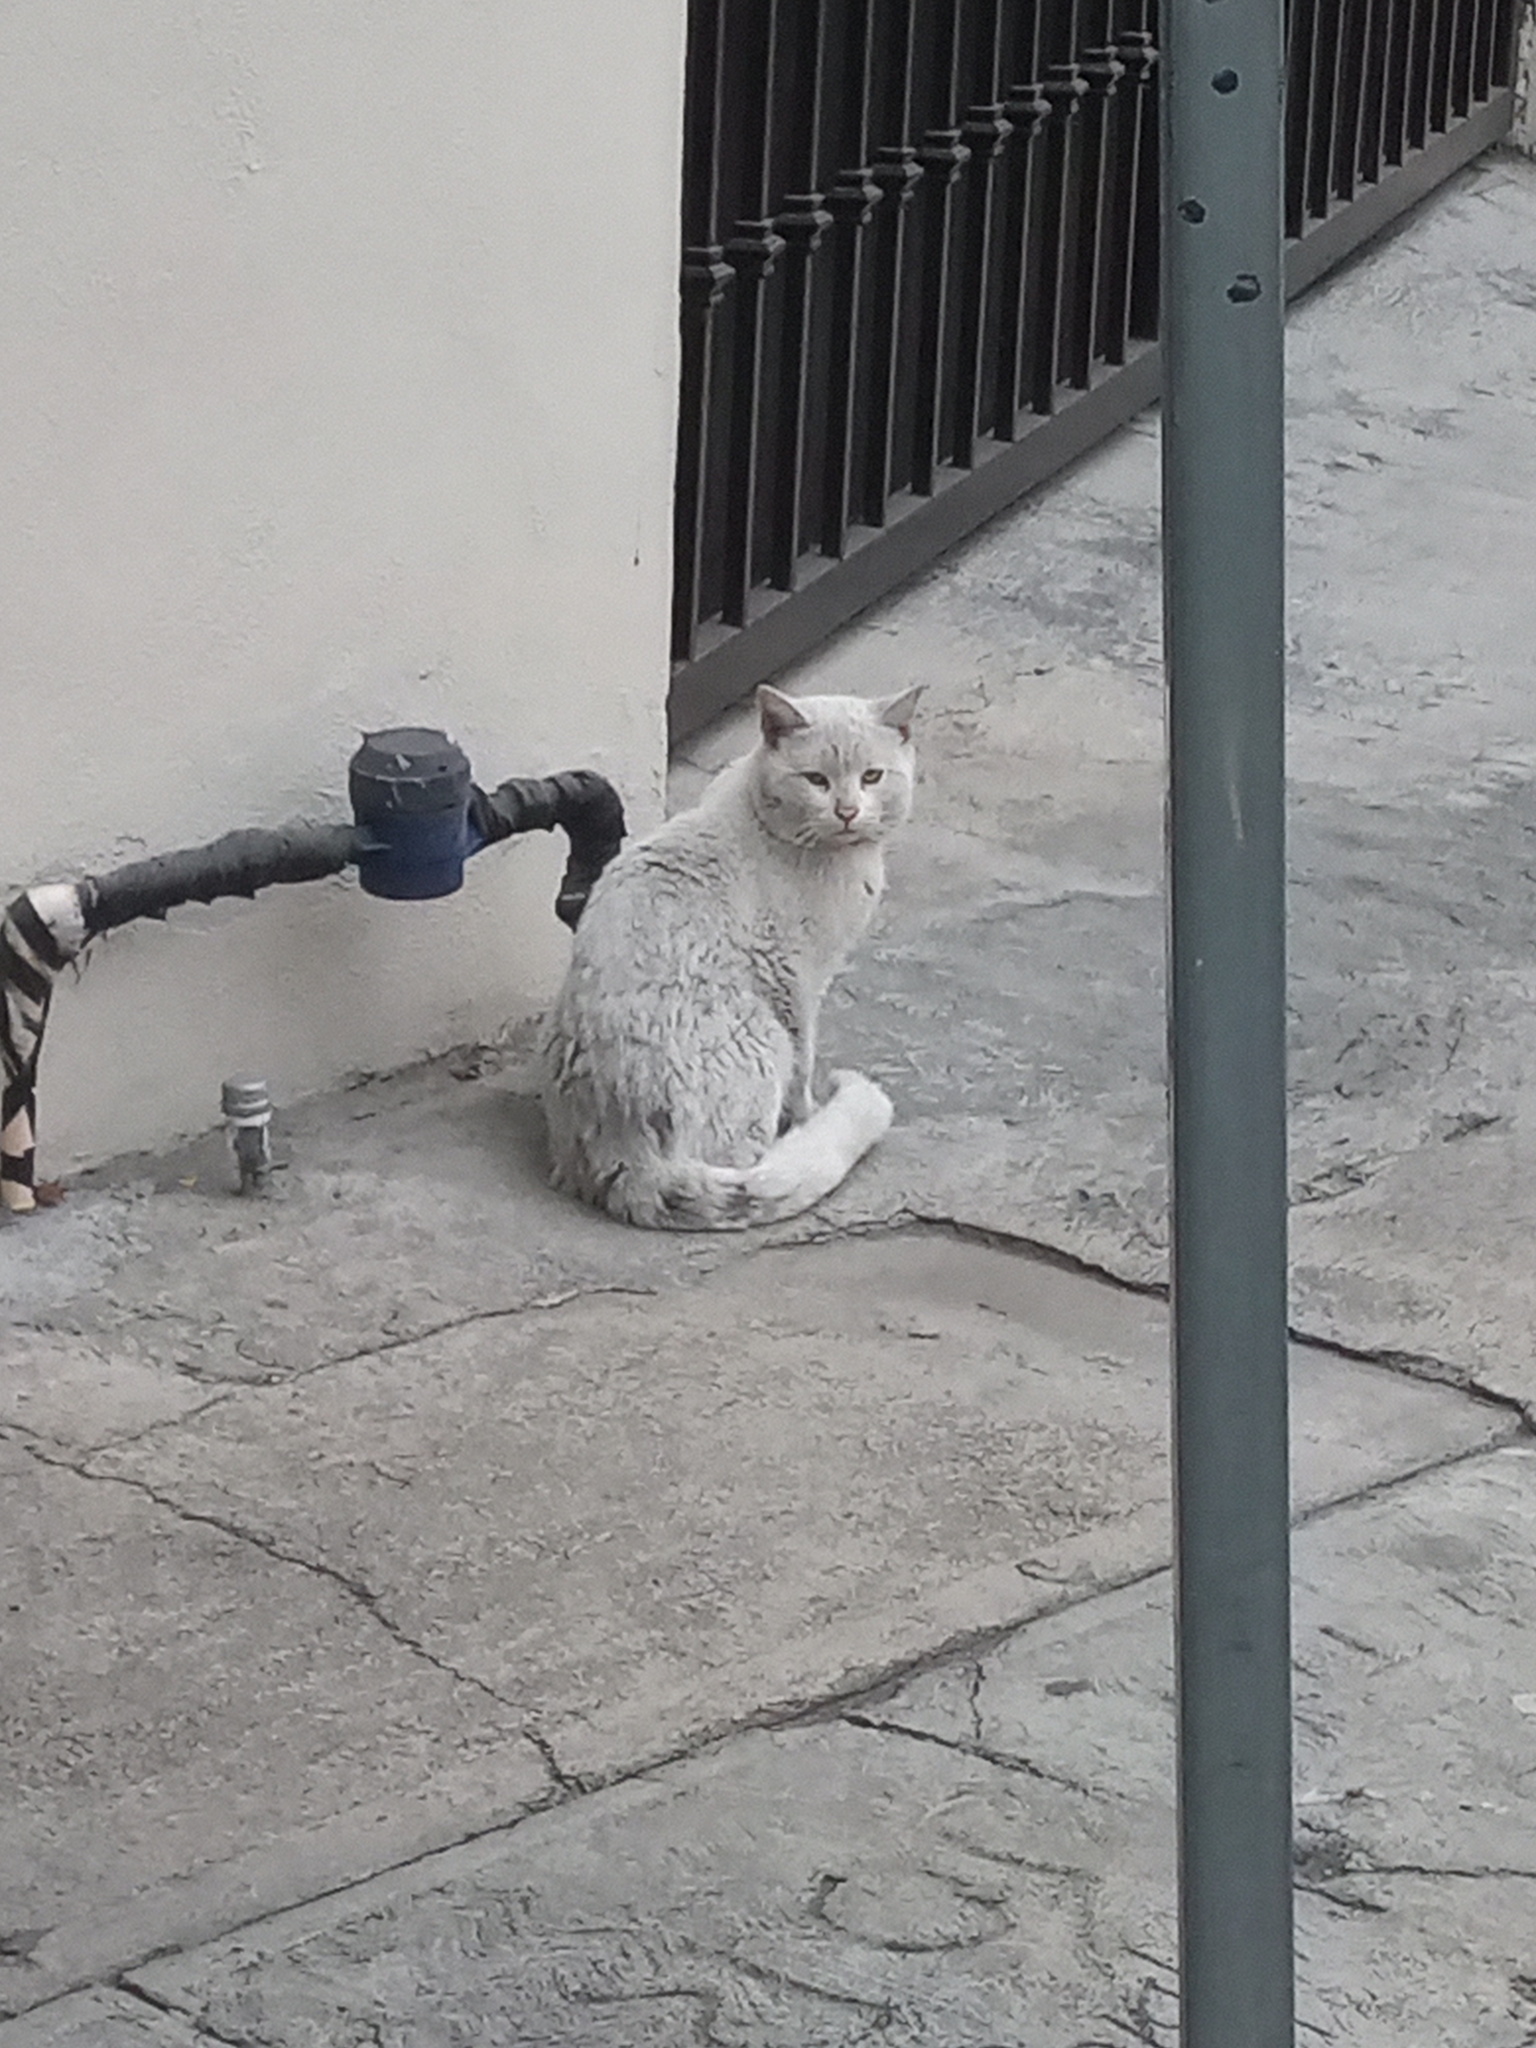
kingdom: Animalia
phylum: Chordata
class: Mammalia
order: Carnivora
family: Felidae
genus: Felis
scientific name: Felis catus
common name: Domestic cat
